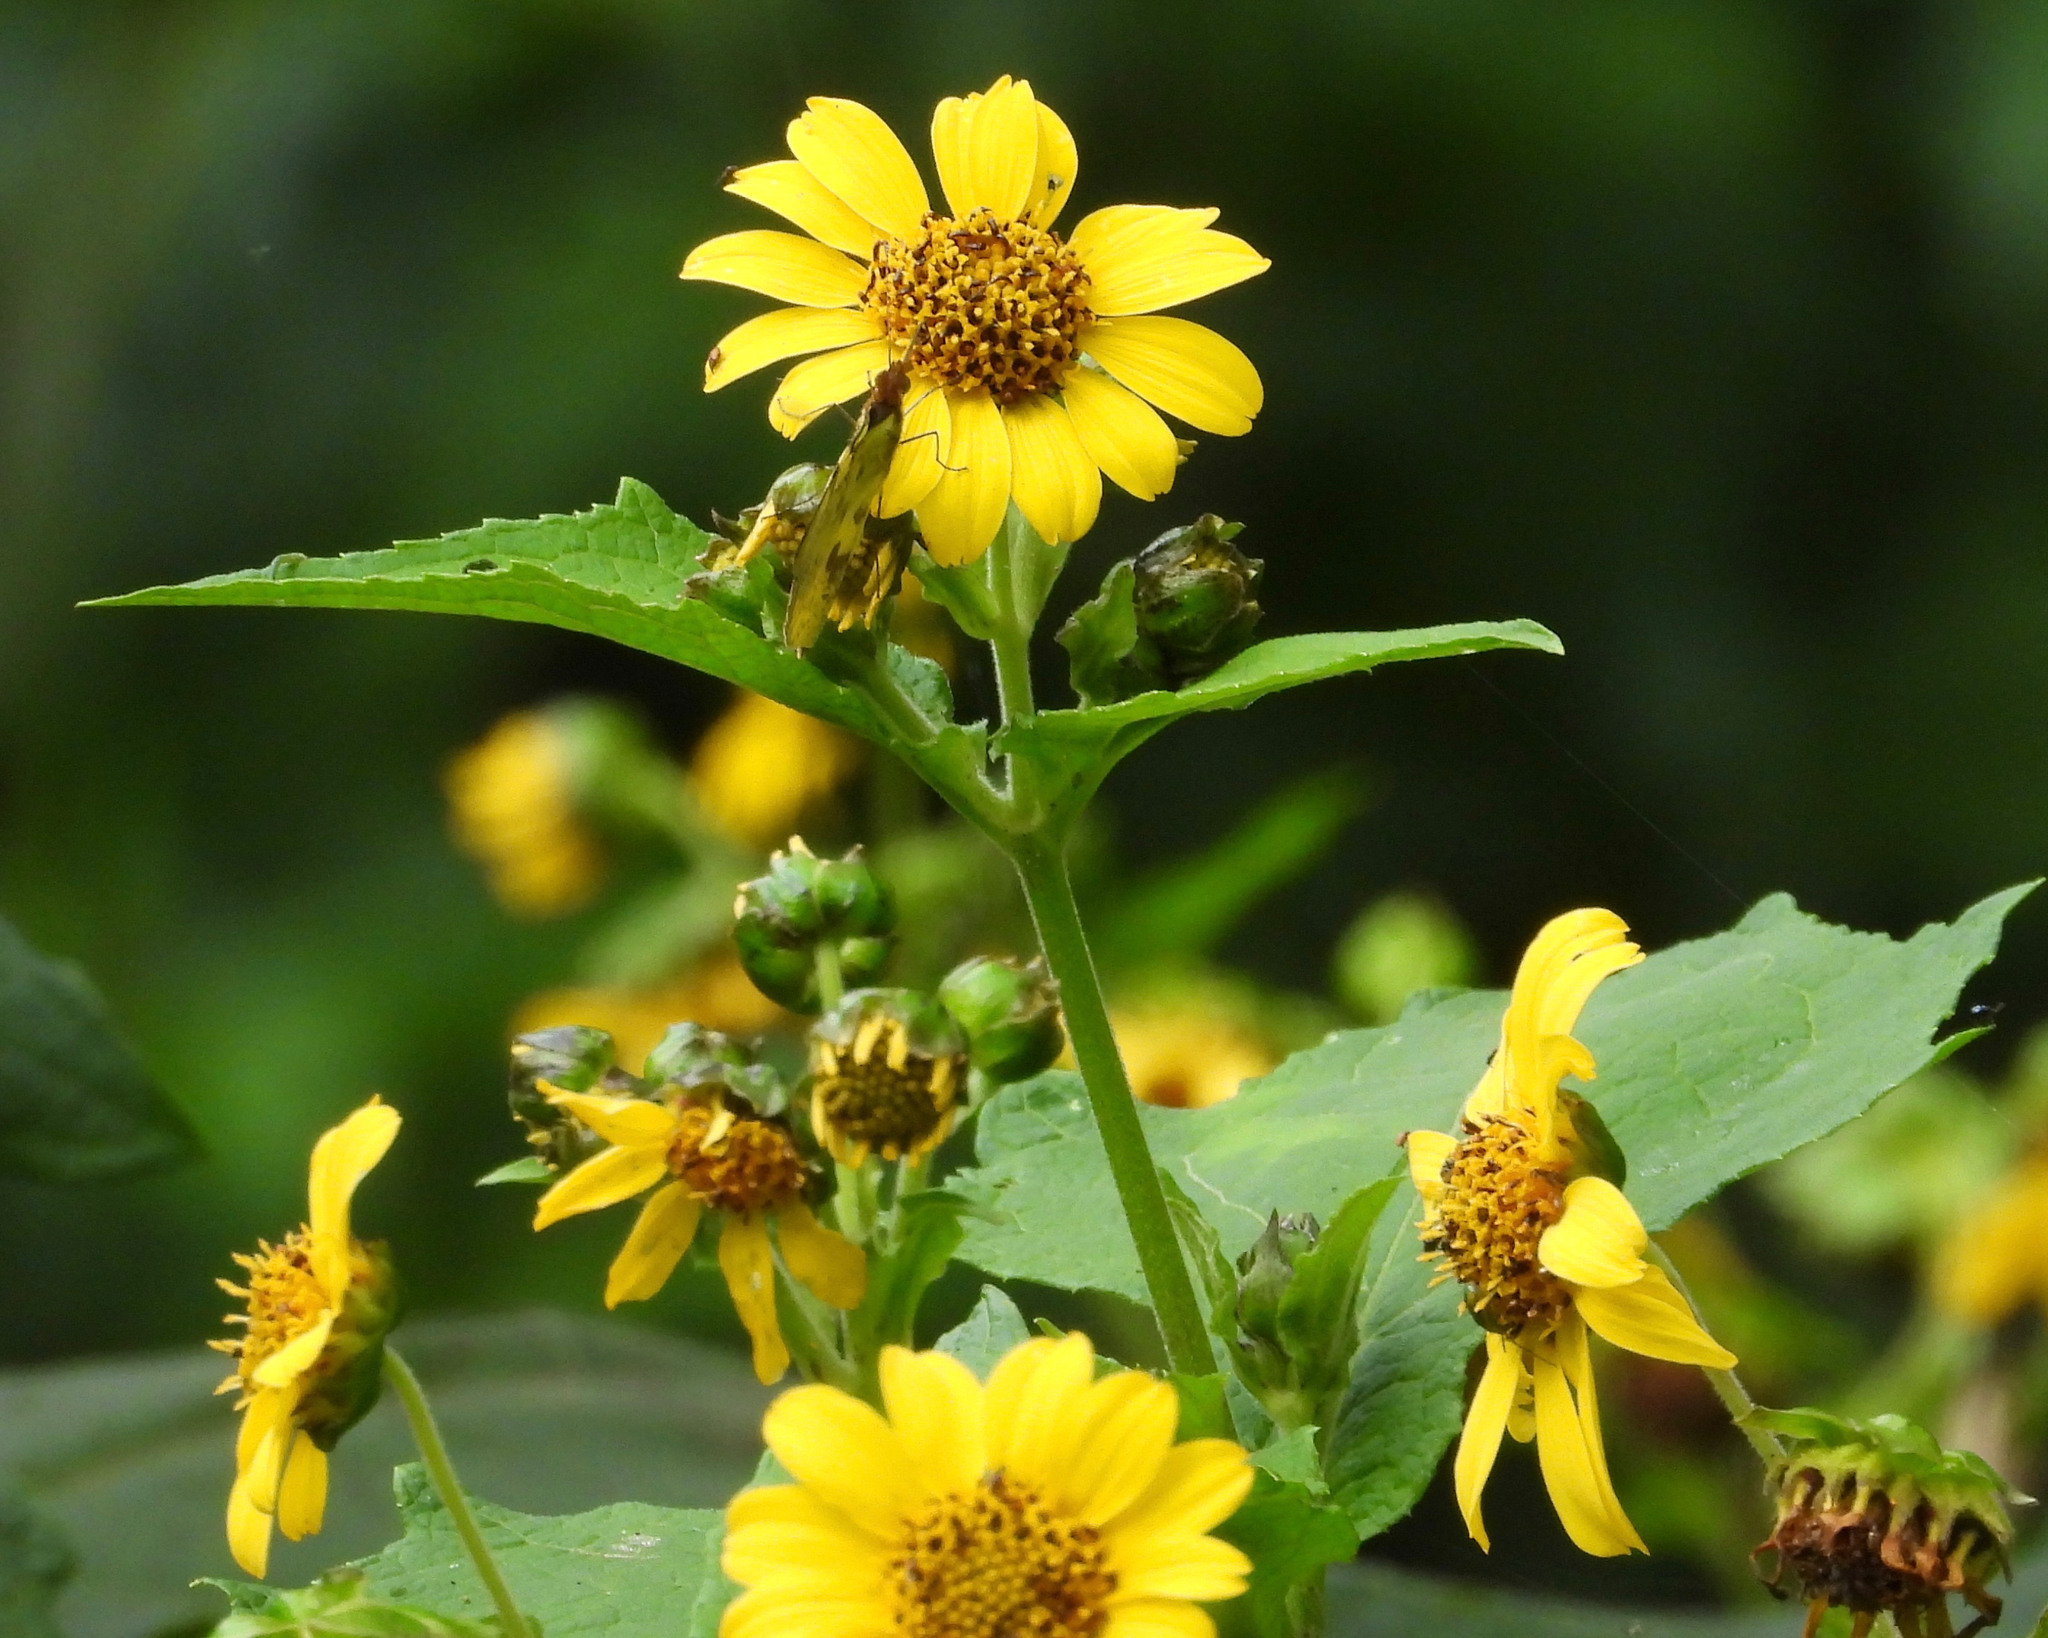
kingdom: Plantae
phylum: Tracheophyta
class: Magnoliopsida
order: Asterales
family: Asteraceae
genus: Smallanthus
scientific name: Smallanthus maculatus
